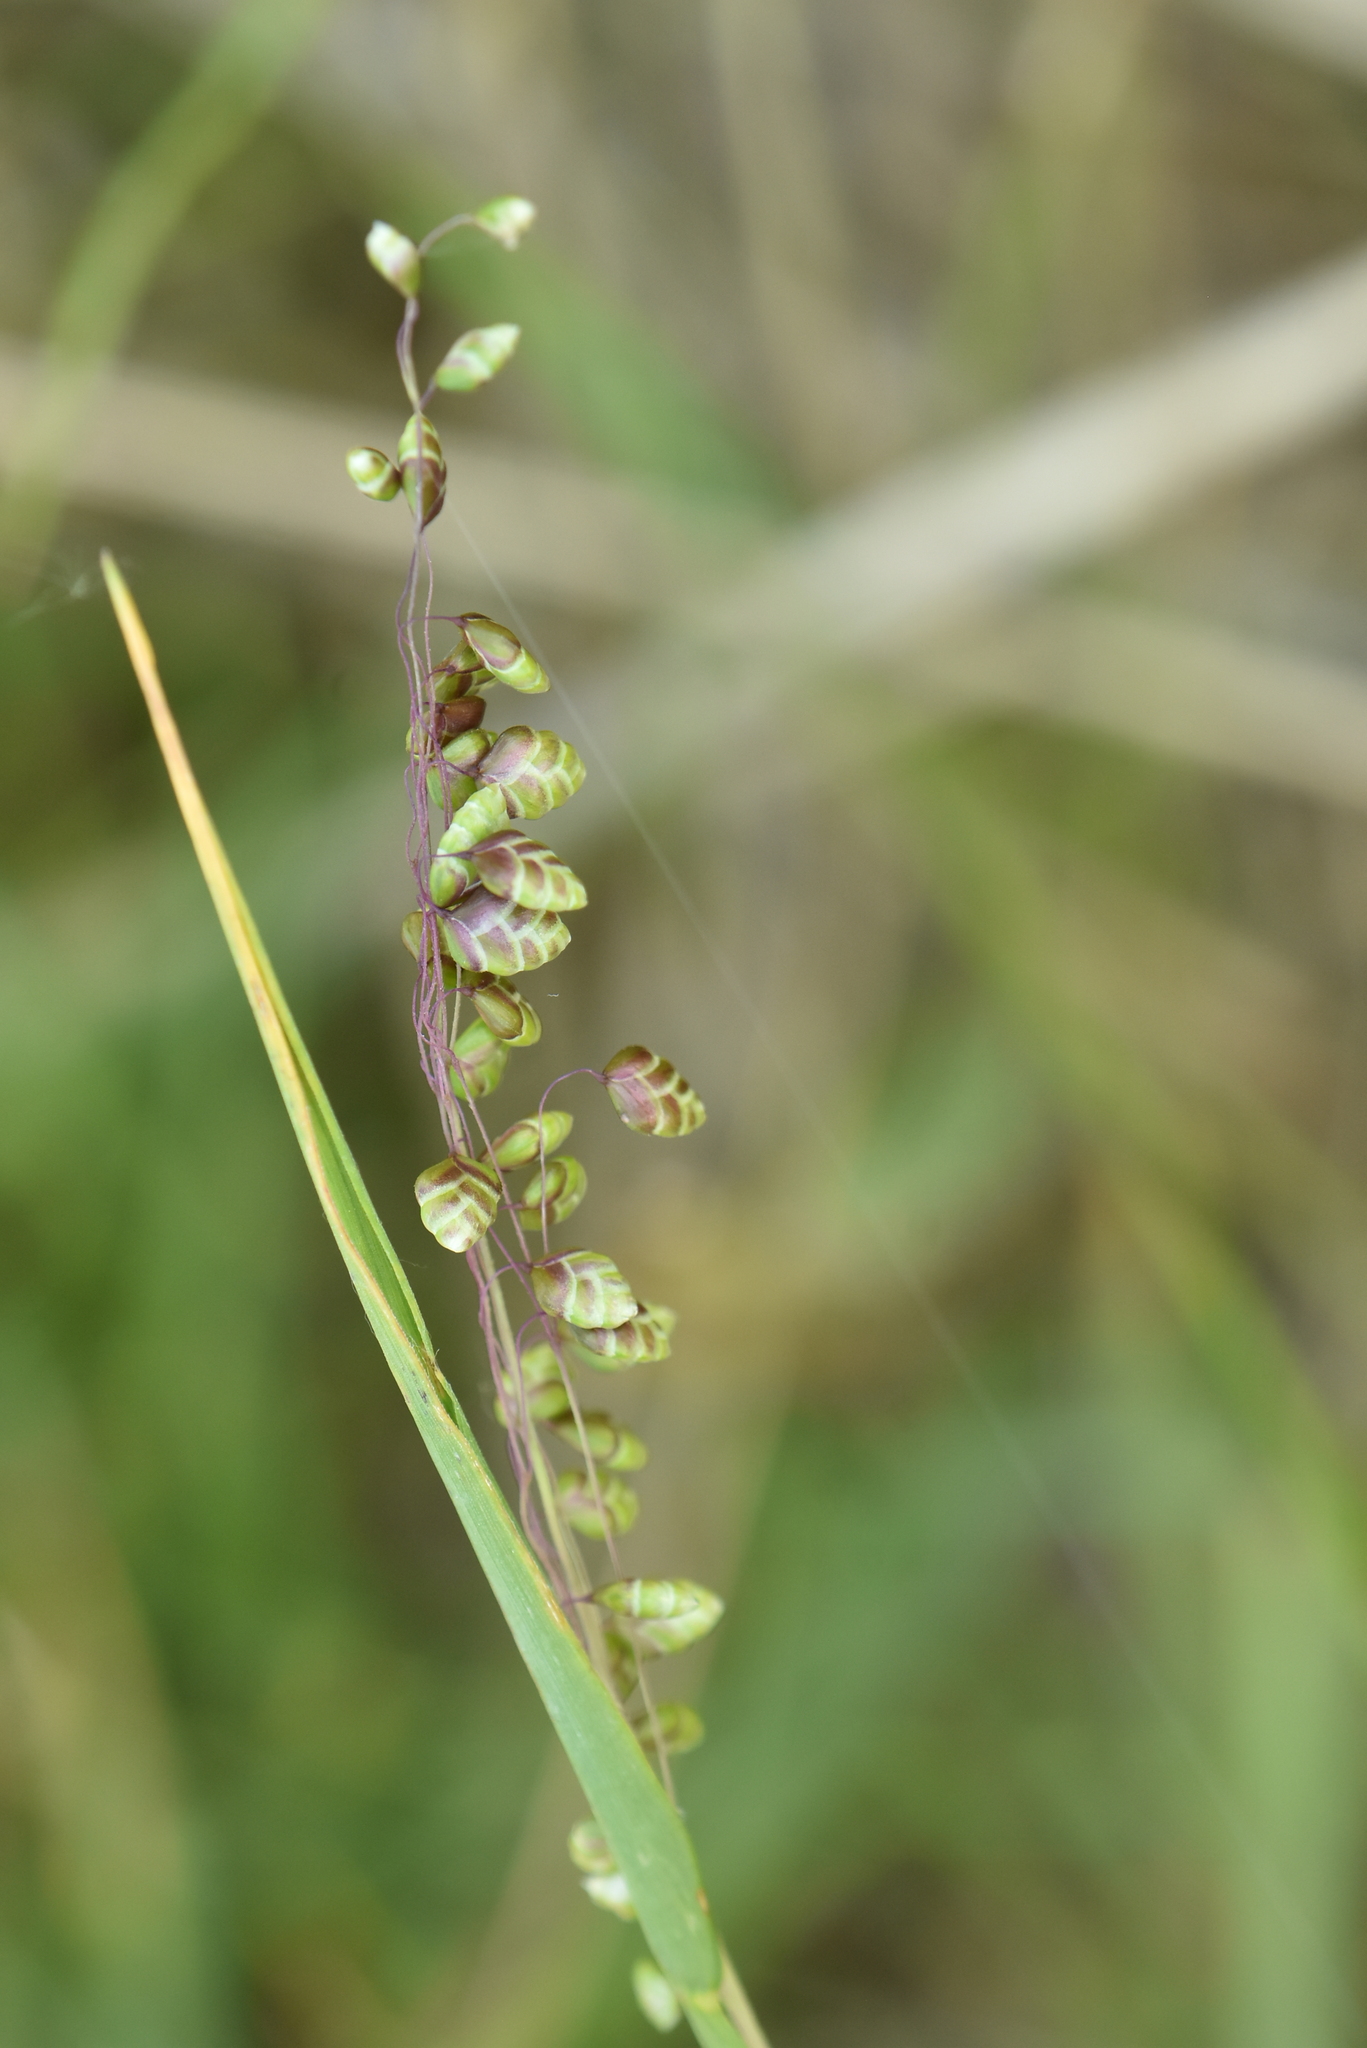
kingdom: Plantae
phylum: Tracheophyta
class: Liliopsida
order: Poales
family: Poaceae
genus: Briza
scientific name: Briza media
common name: Quaking grass
